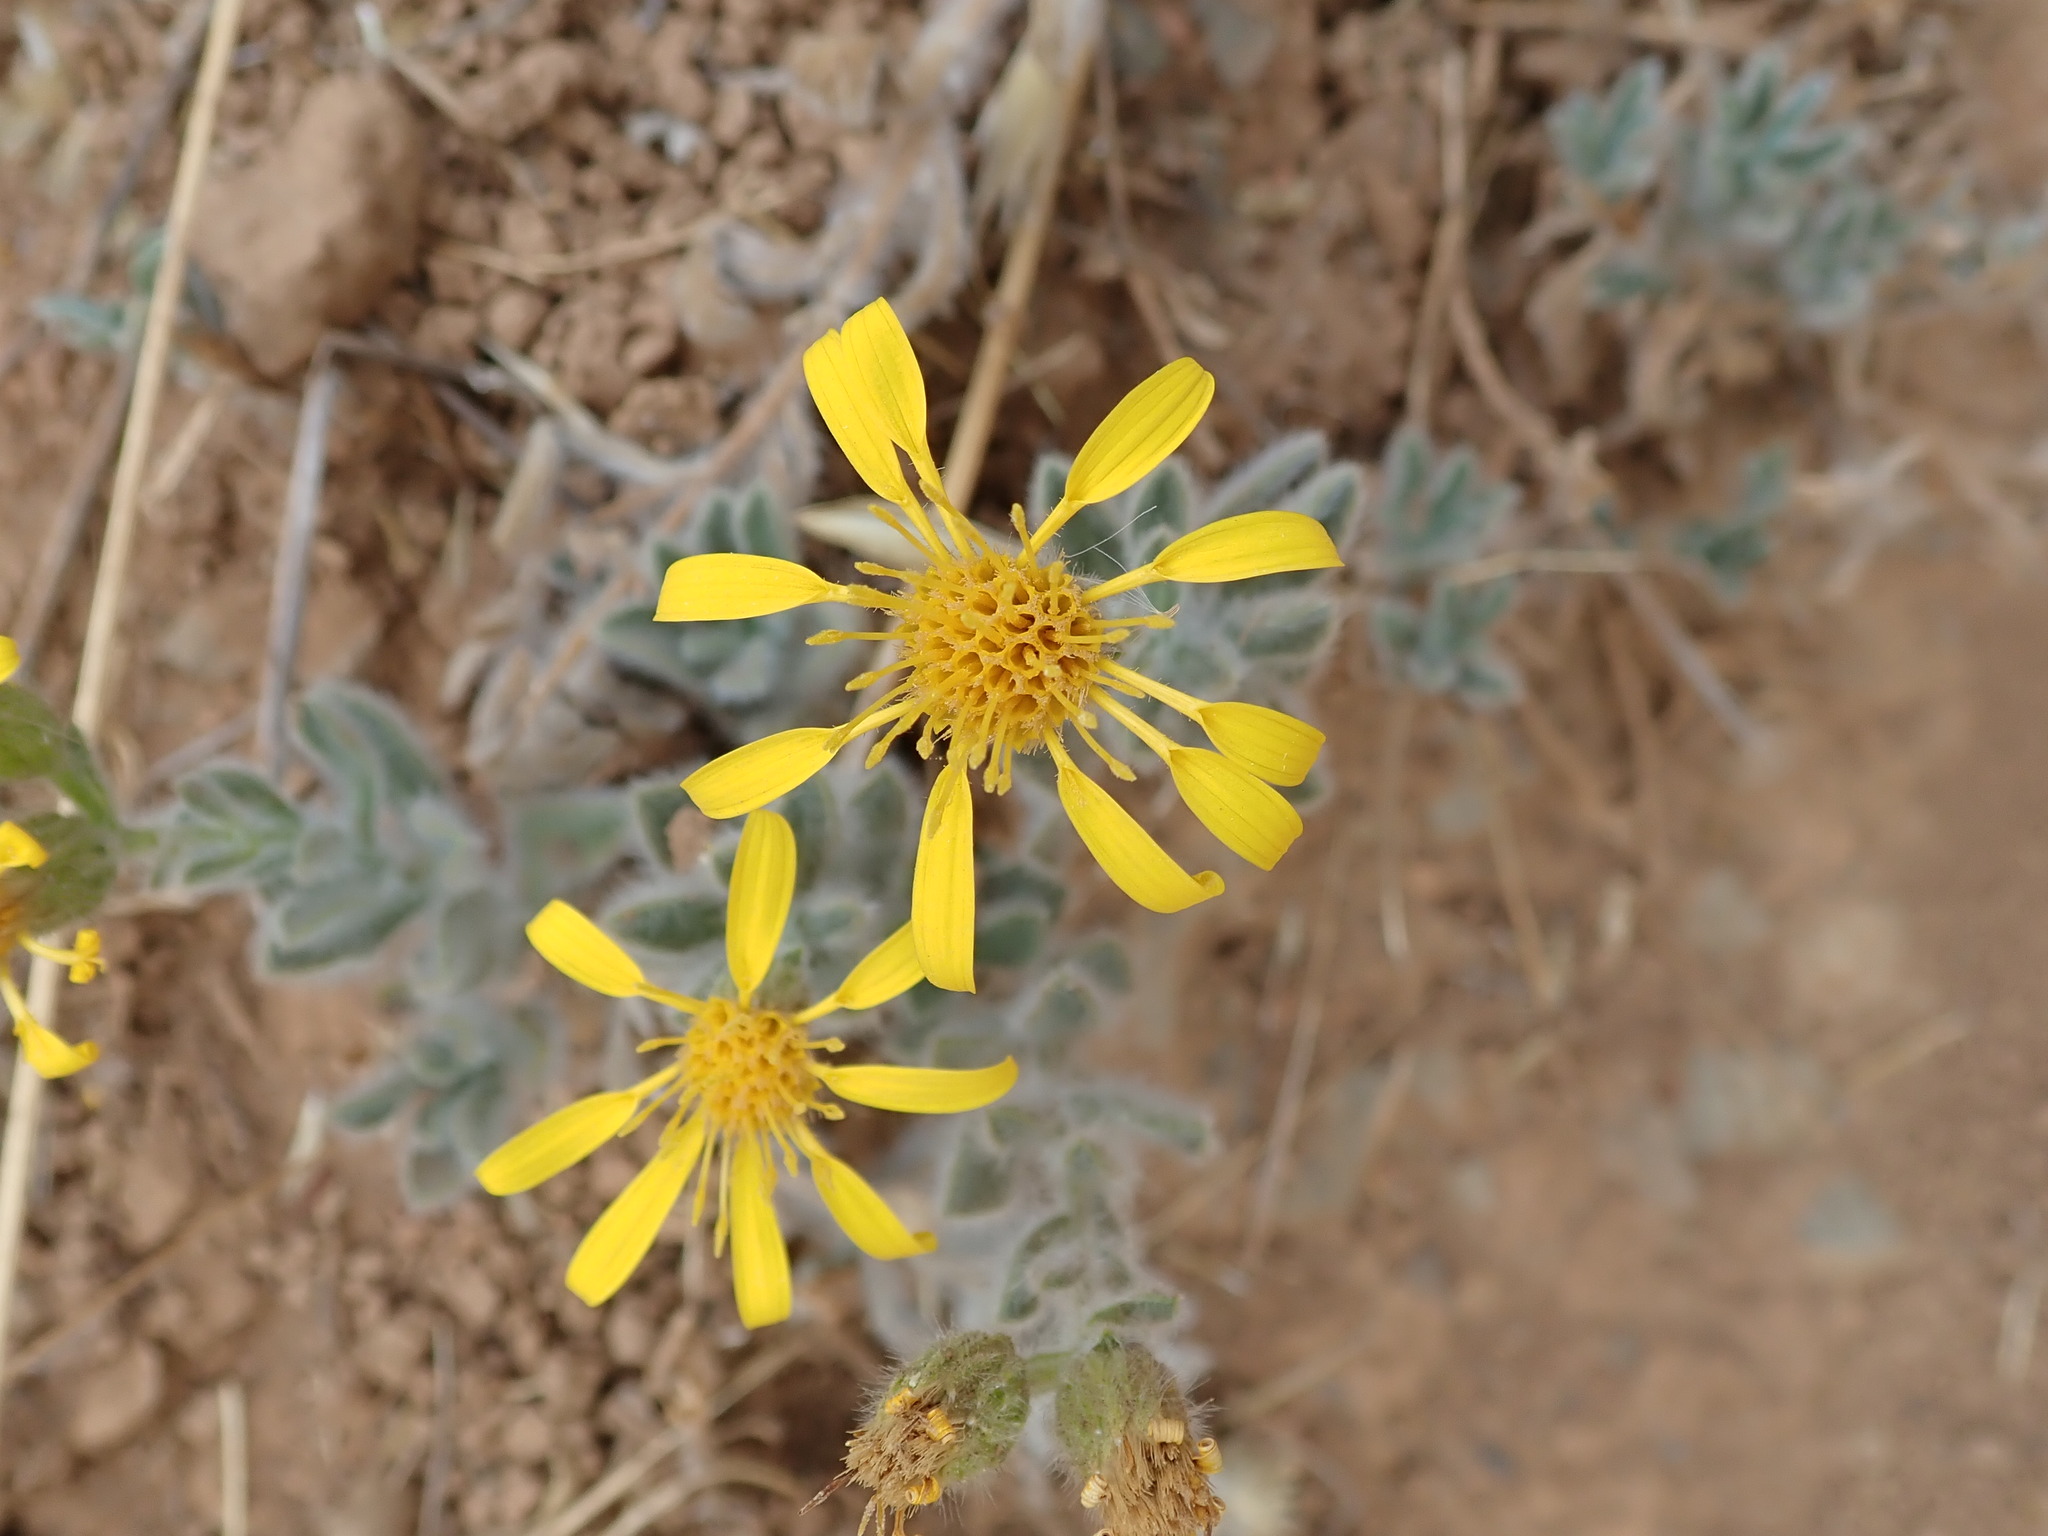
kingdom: Plantae
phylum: Tracheophyta
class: Magnoliopsida
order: Asterales
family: Asteraceae
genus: Heterotheca
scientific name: Heterotheca sessiliflora
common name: Sessile-flower golden-aster
